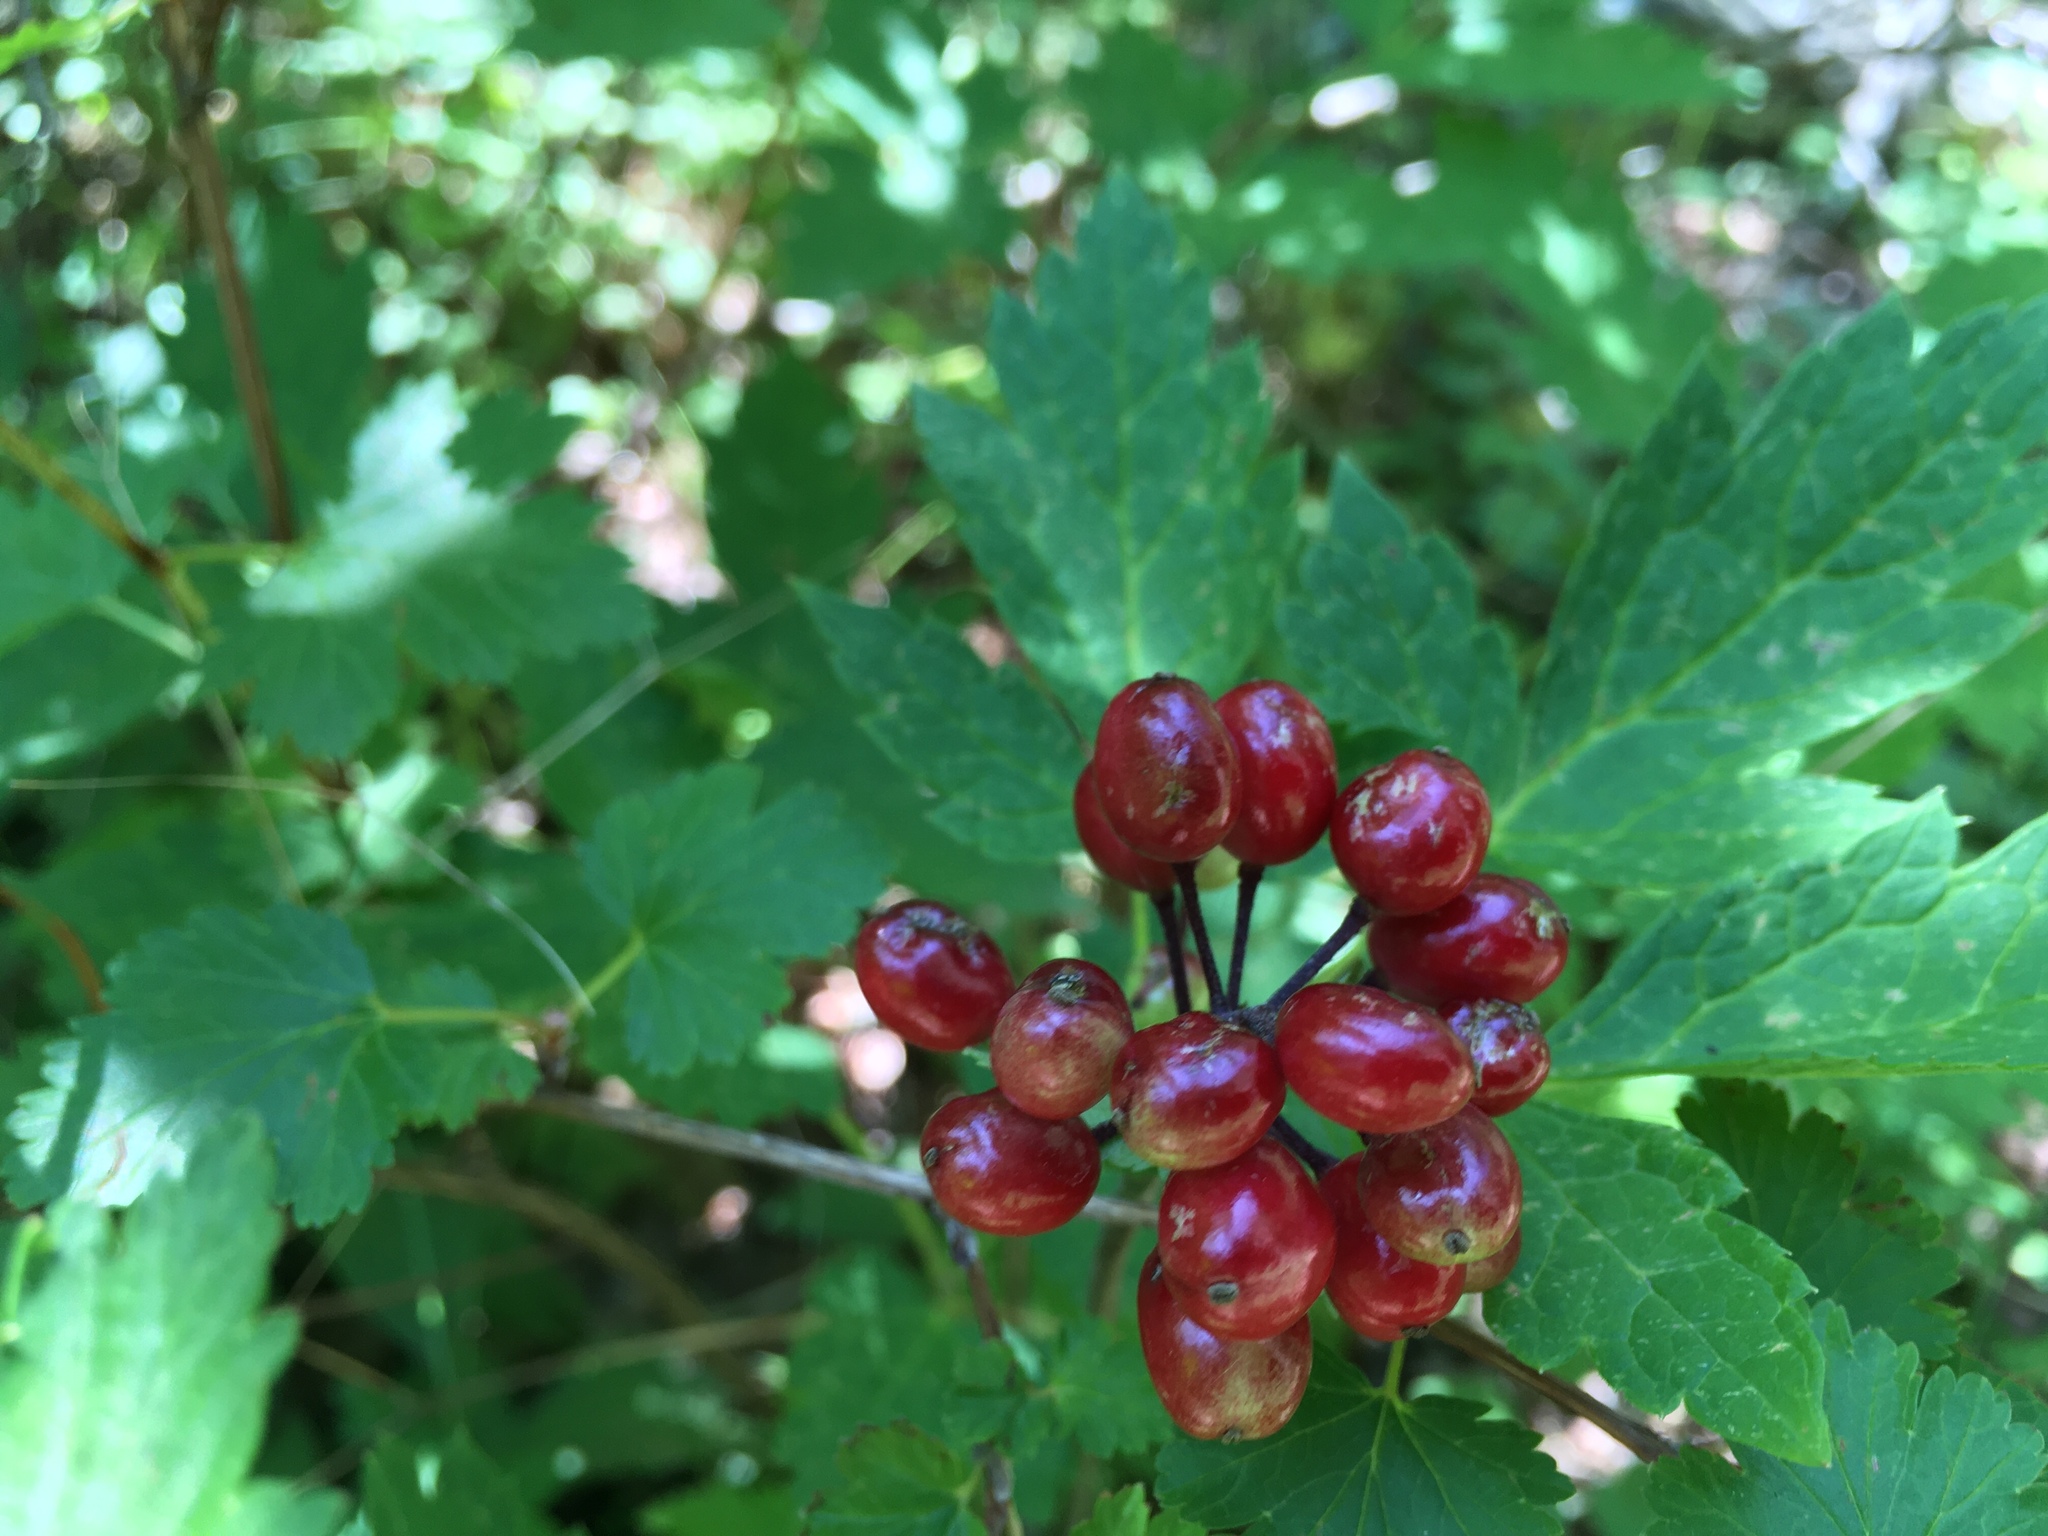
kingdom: Plantae
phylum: Tracheophyta
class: Magnoliopsida
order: Ranunculales
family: Ranunculaceae
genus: Actaea
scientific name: Actaea rubra
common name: Red baneberry
